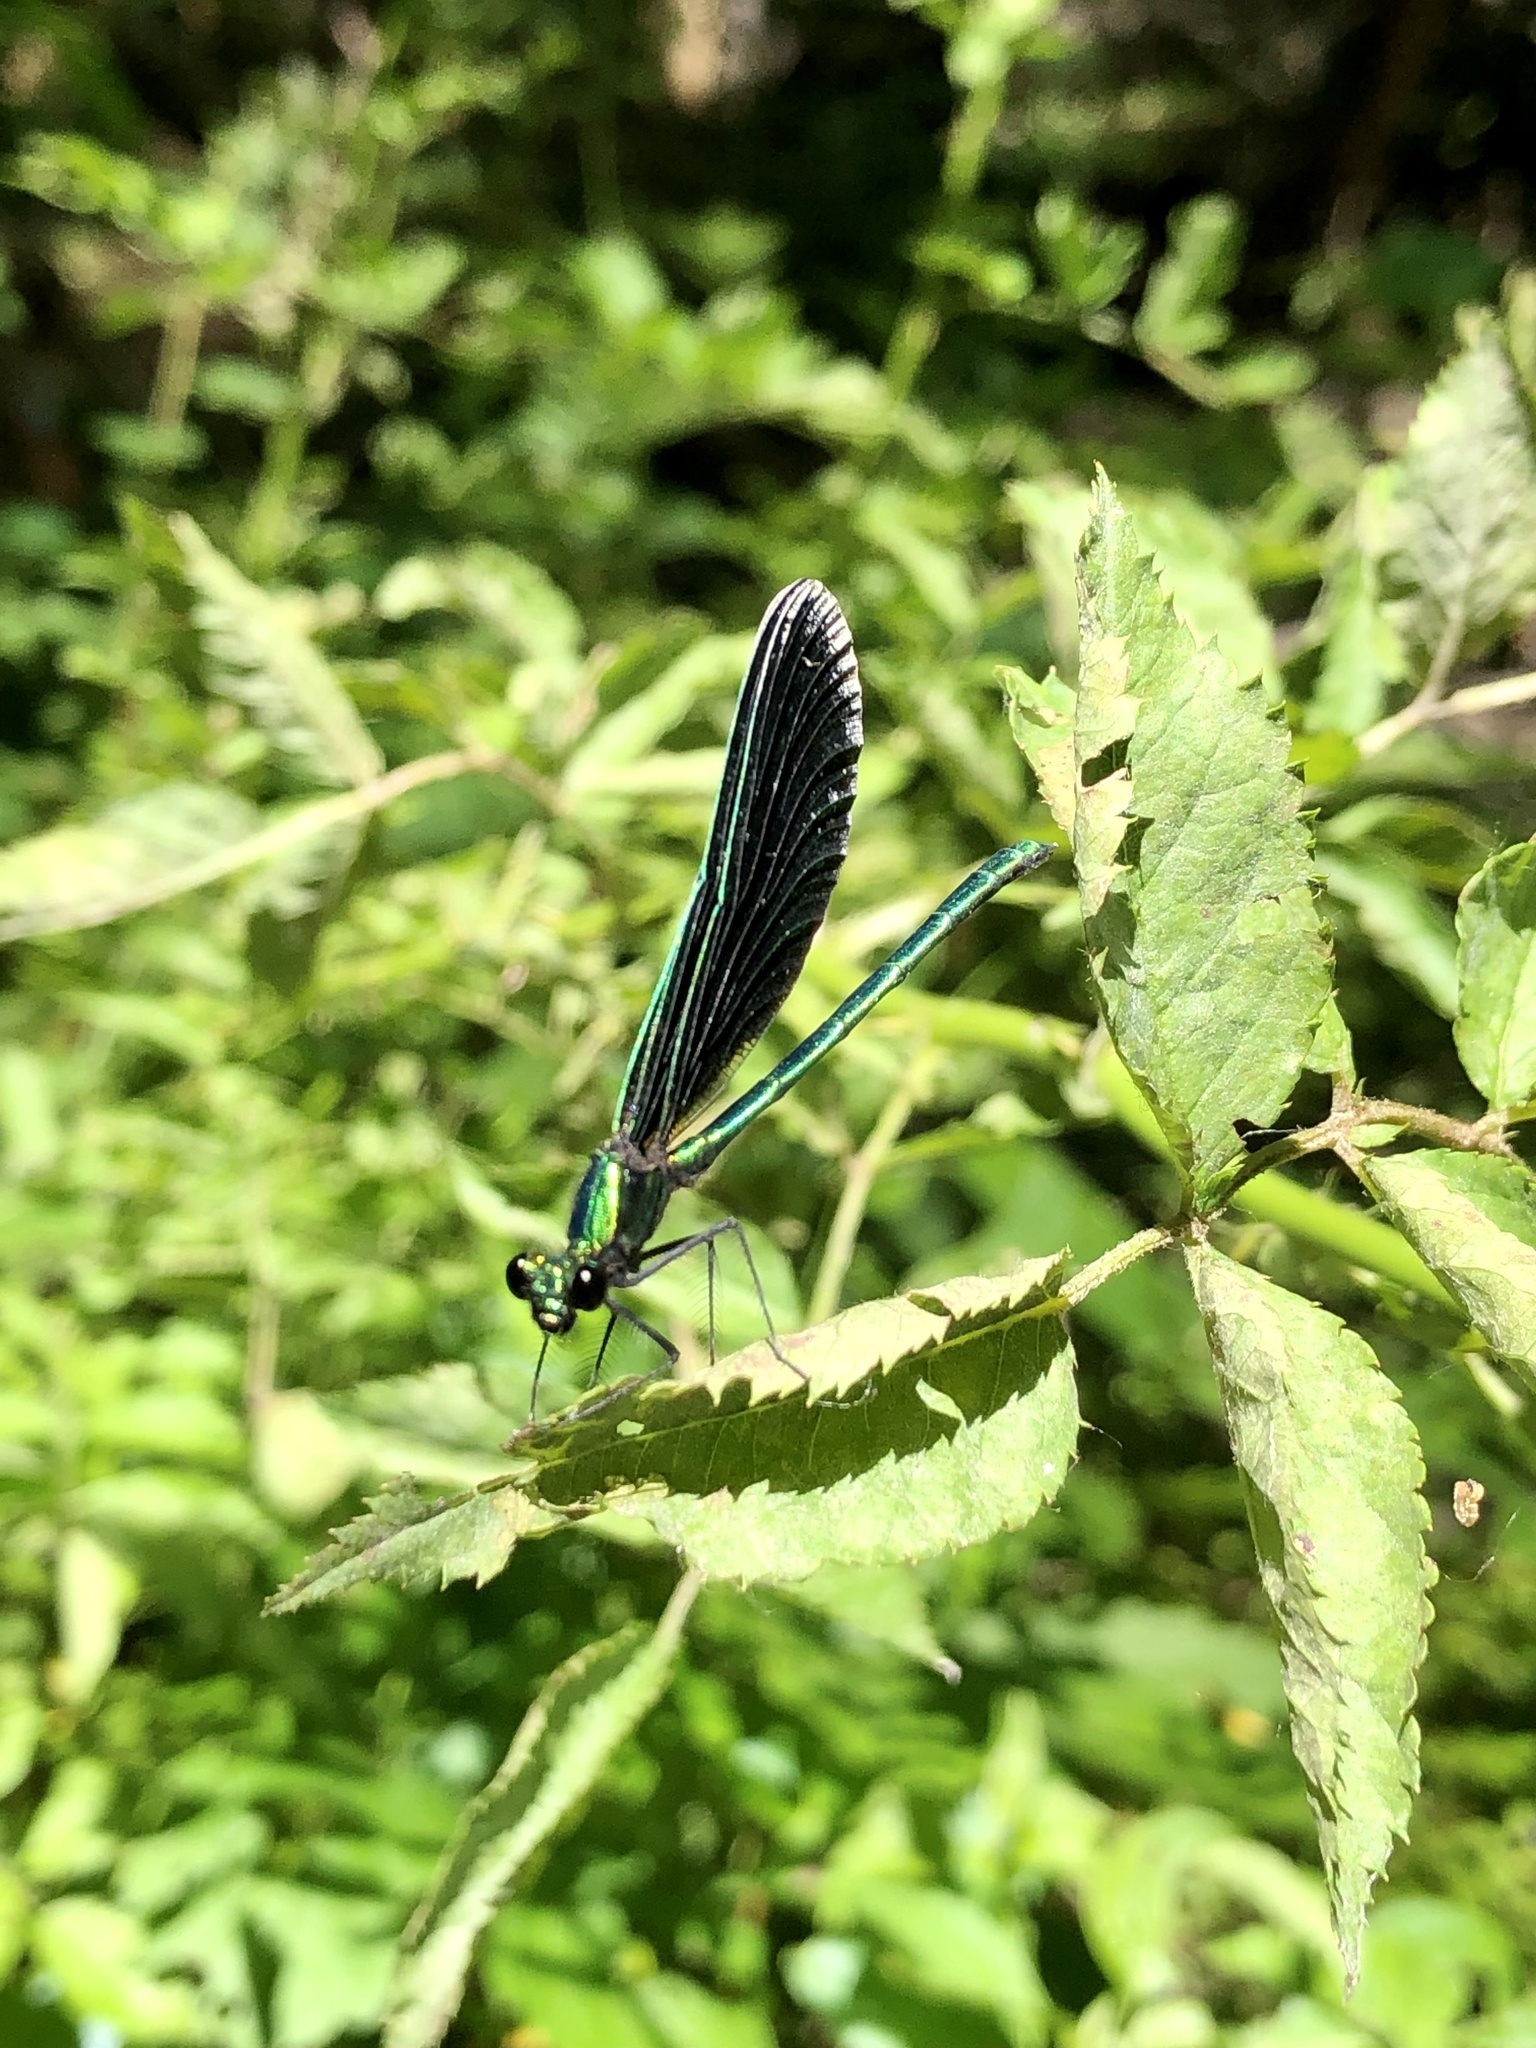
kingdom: Animalia
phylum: Arthropoda
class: Insecta
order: Odonata
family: Calopterygidae
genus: Calopteryx
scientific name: Calopteryx maculata
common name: Ebony jewelwing
